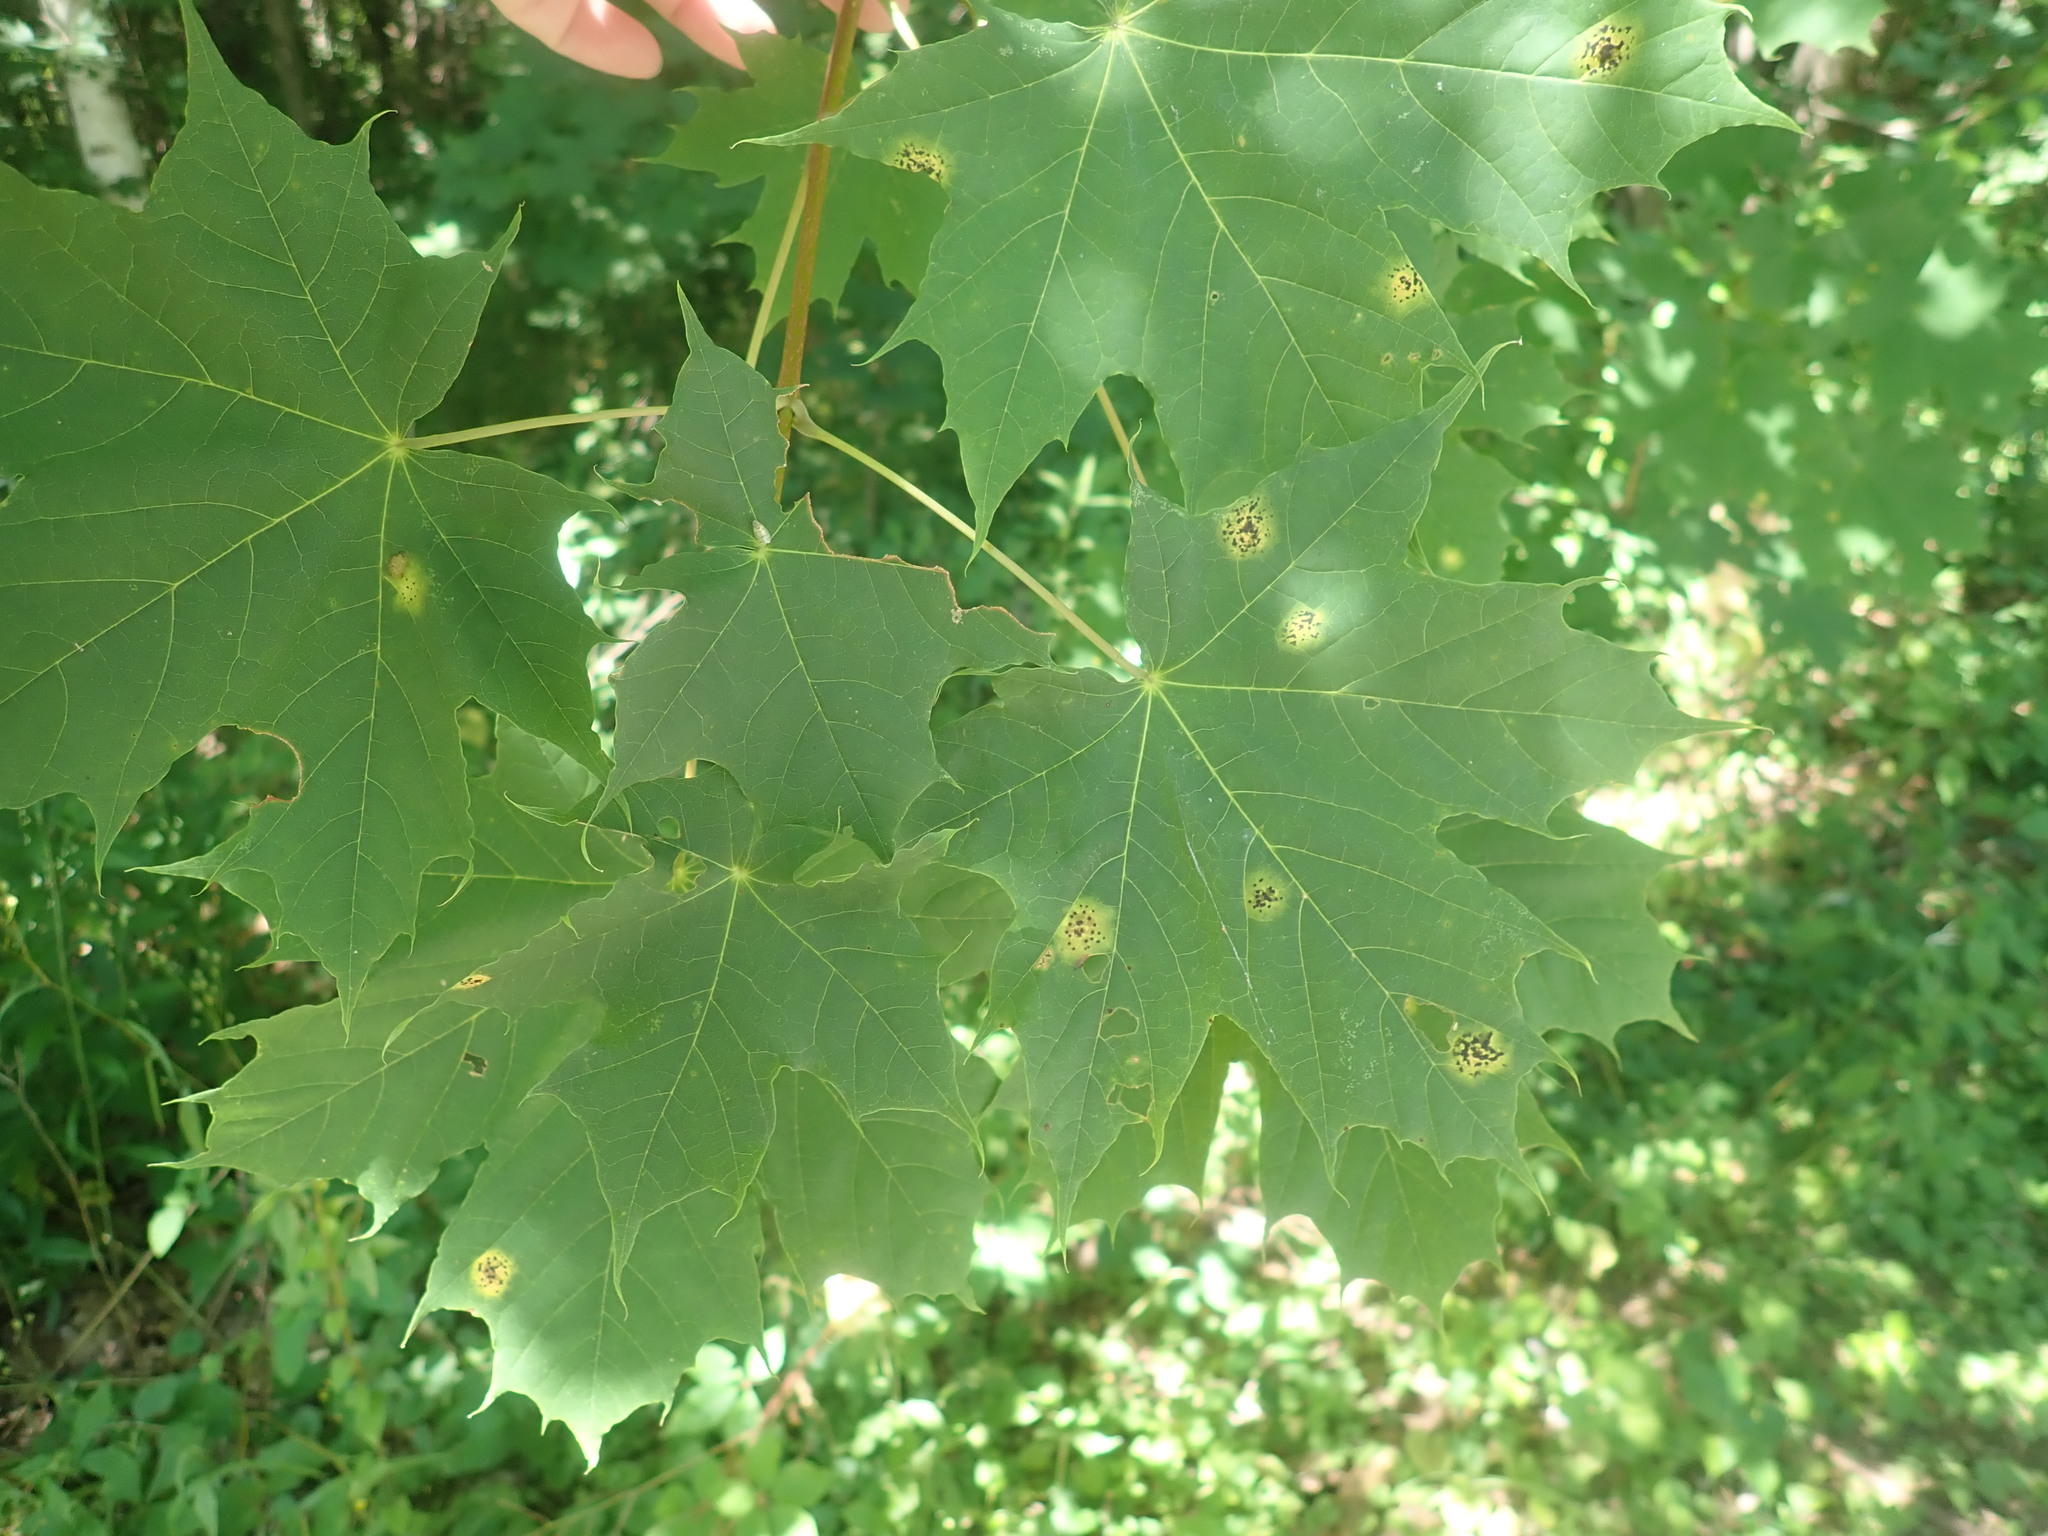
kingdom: Plantae
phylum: Tracheophyta
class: Magnoliopsida
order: Sapindales
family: Sapindaceae
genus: Acer
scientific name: Acer platanoides
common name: Norway maple
